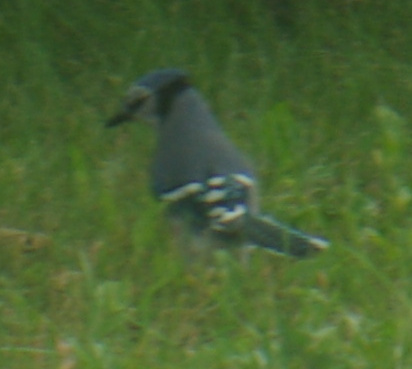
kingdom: Animalia
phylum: Chordata
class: Aves
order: Passeriformes
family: Corvidae
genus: Cyanocitta
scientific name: Cyanocitta cristata
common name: Blue jay
